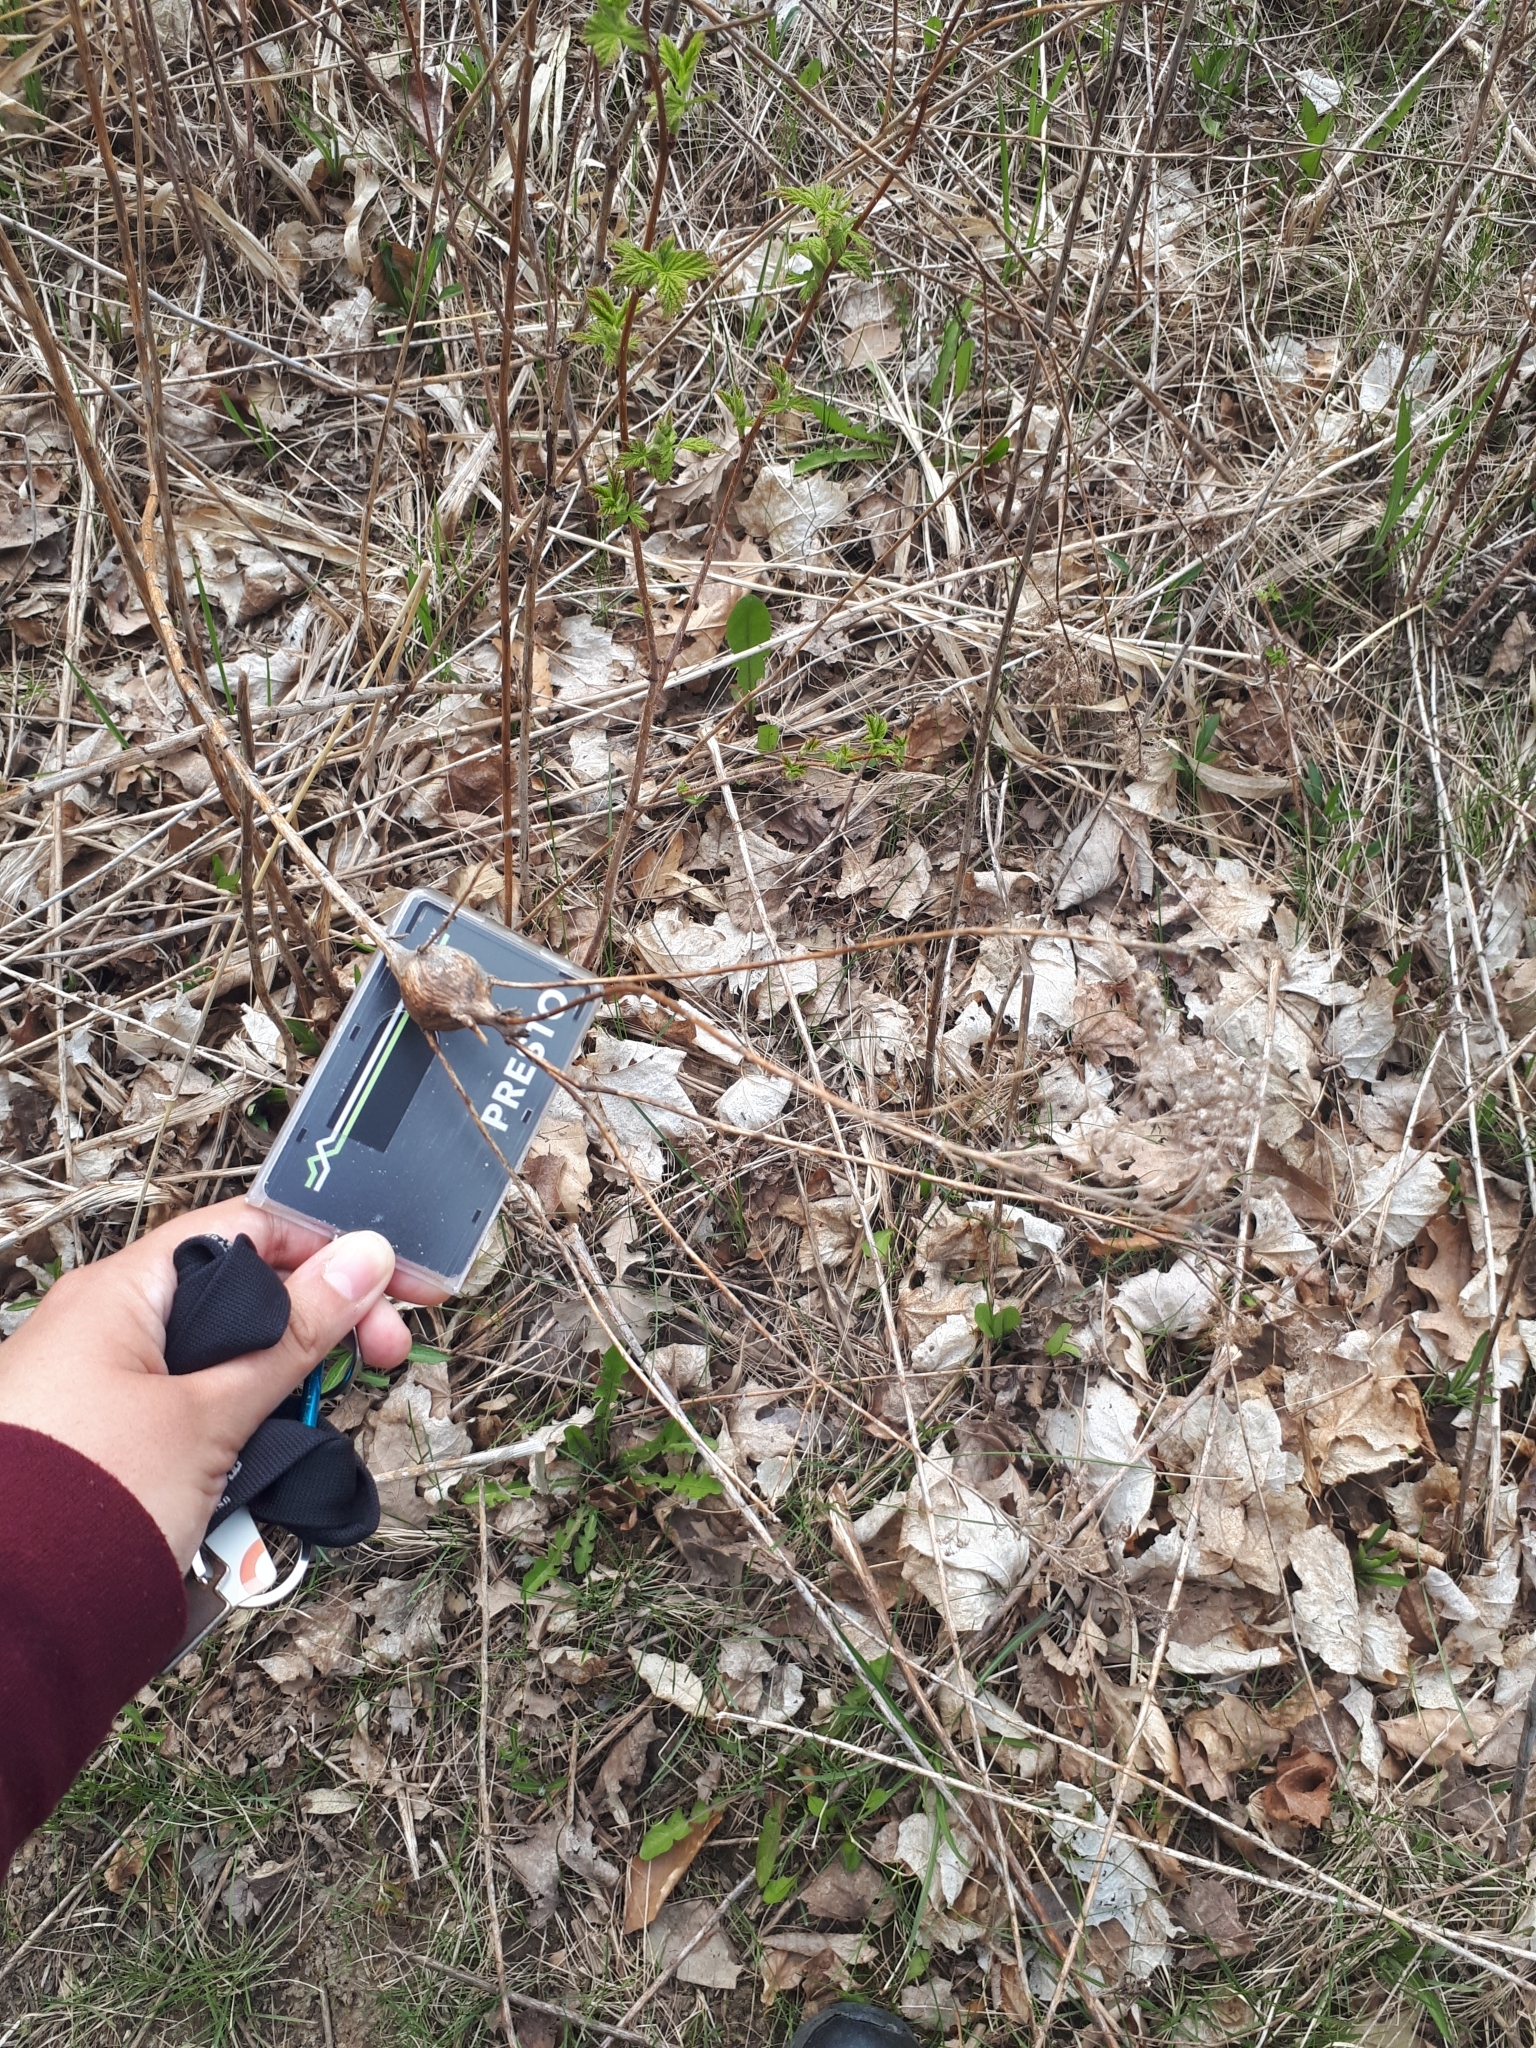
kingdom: Animalia
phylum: Arthropoda
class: Insecta
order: Diptera
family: Tephritidae
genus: Eurosta
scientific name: Eurosta solidaginis
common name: Goldenrod gall fly
